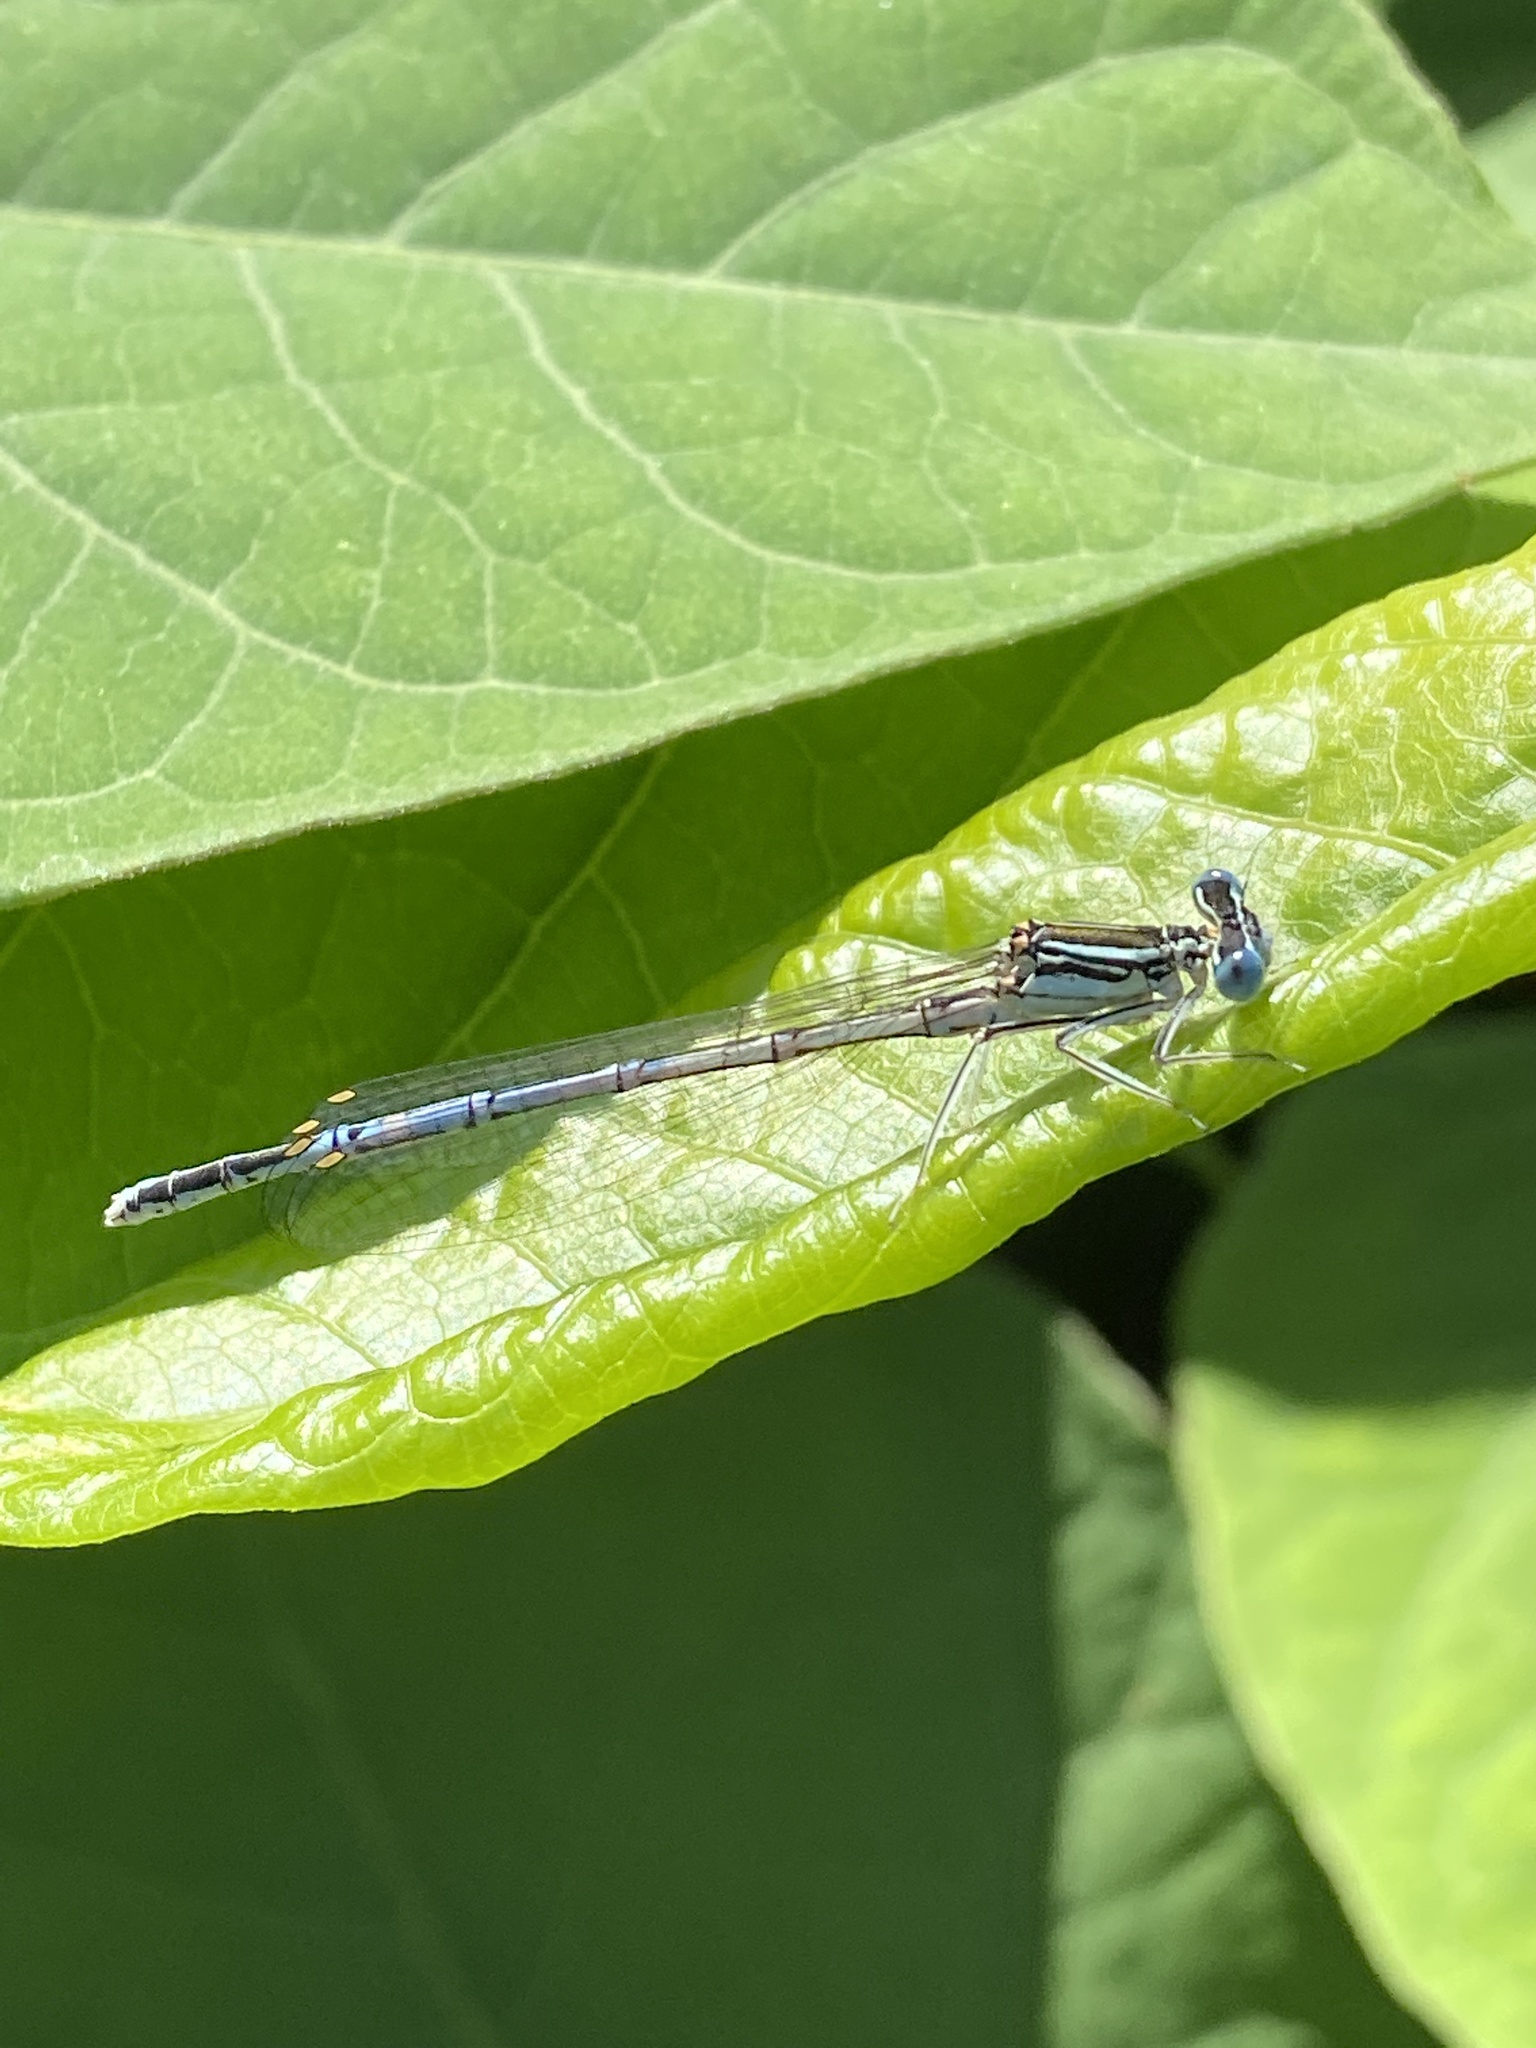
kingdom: Animalia
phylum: Arthropoda
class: Insecta
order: Odonata
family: Platycnemididae
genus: Platycnemis
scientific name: Platycnemis pennipes
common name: White-legged damselfly
